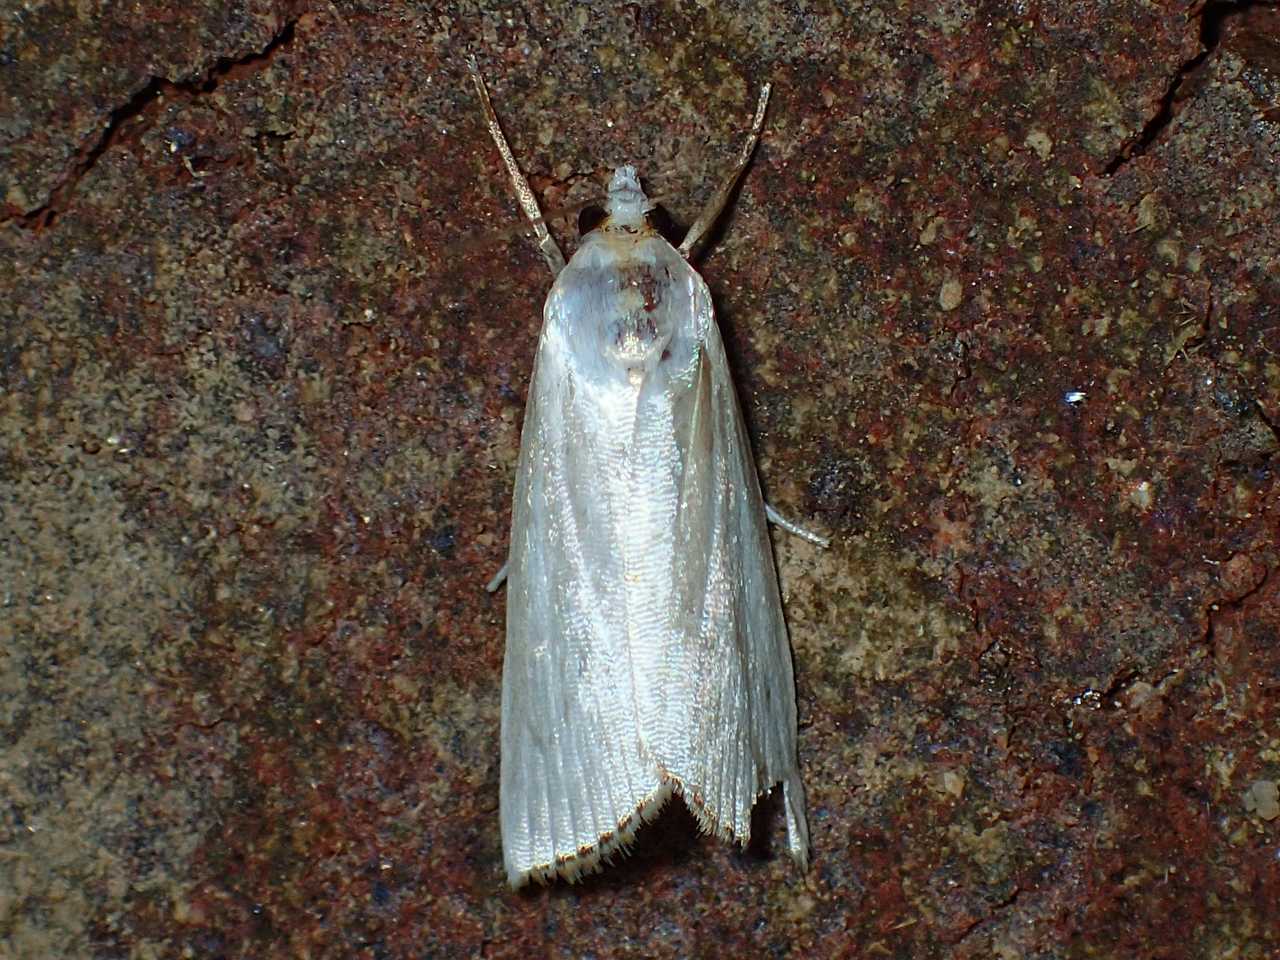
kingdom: Animalia
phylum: Arthropoda
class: Insecta
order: Lepidoptera
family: Crambidae
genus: Argyria
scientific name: Argyria nivalis
